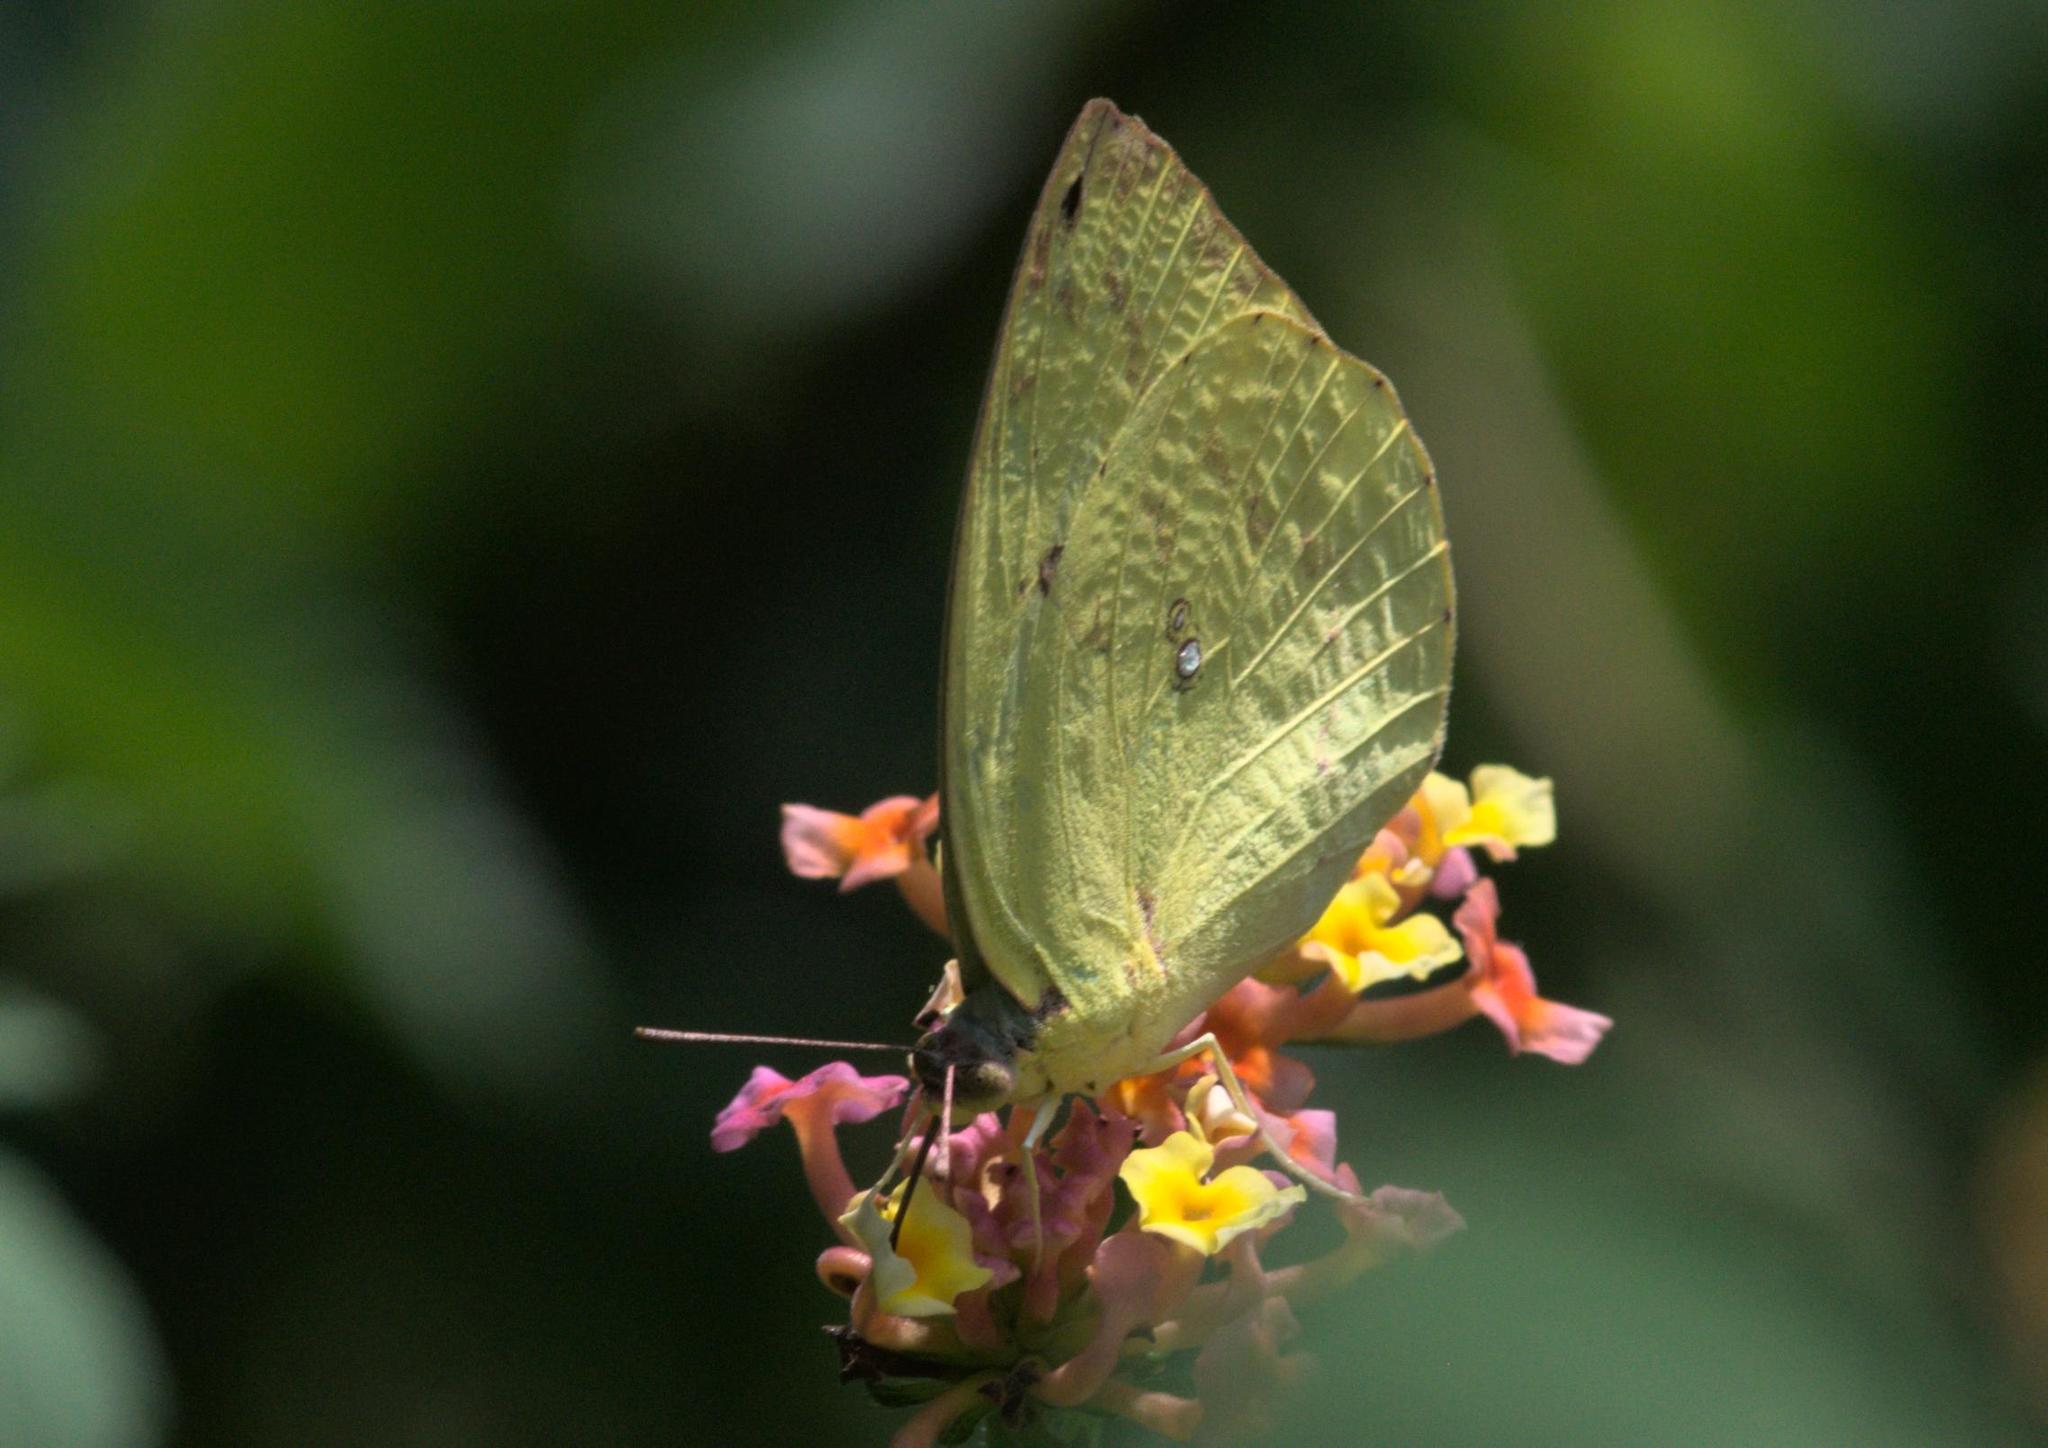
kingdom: Animalia
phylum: Arthropoda
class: Insecta
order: Lepidoptera
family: Pieridae
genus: Catopsilia
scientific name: Catopsilia pomona
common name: Common emigrant
